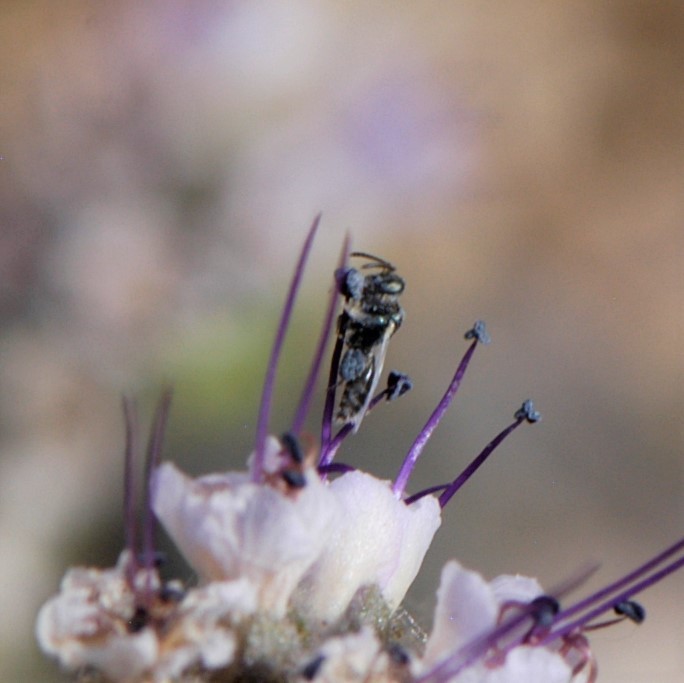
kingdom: Animalia
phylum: Arthropoda
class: Insecta
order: Hymenoptera
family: Andrenidae
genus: Perdita
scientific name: Perdita marcialis
